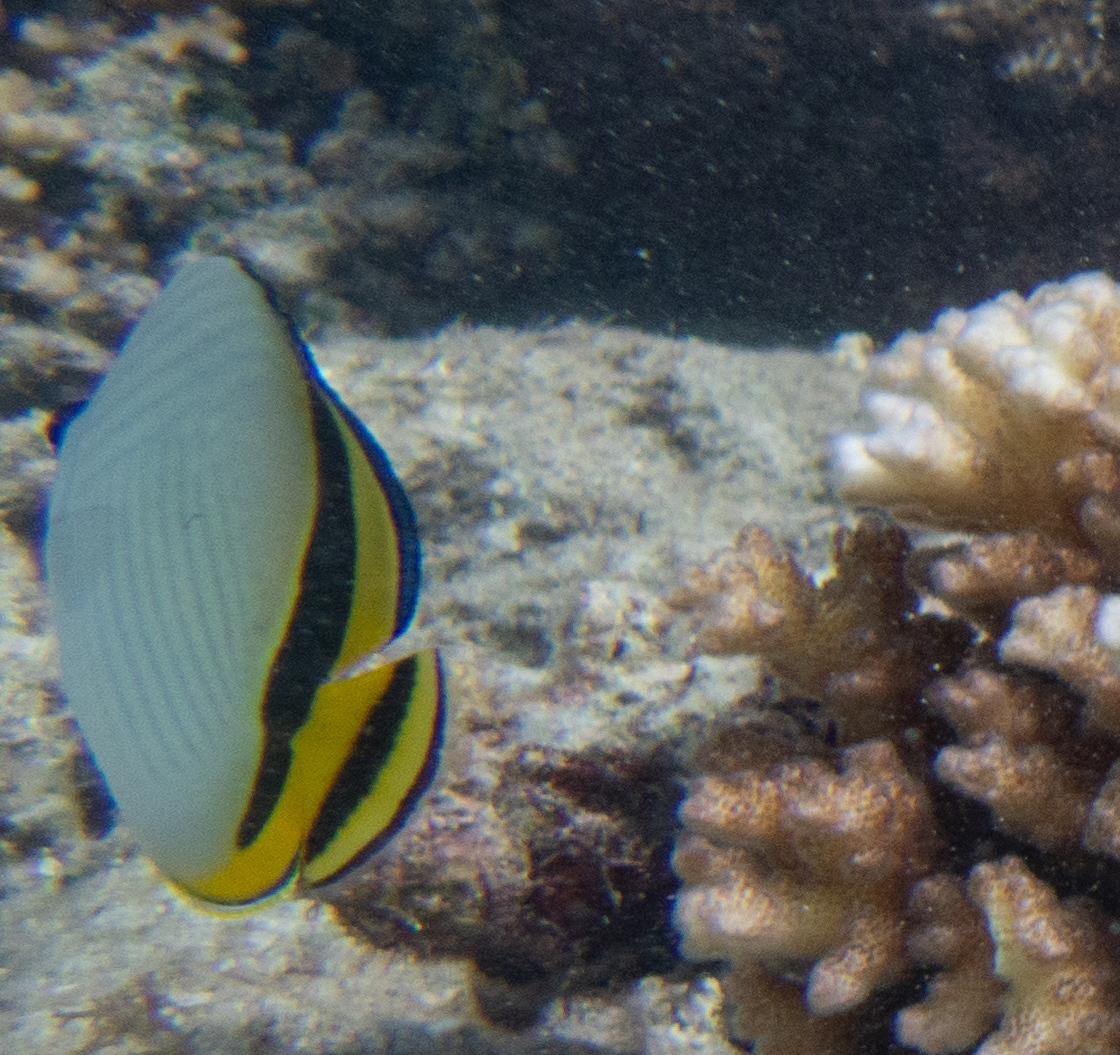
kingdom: Animalia
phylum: Chordata
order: Perciformes
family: Chaetodontidae
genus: Chaetodon
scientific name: Chaetodon vagabundus
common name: Vagabond butterflyfish
